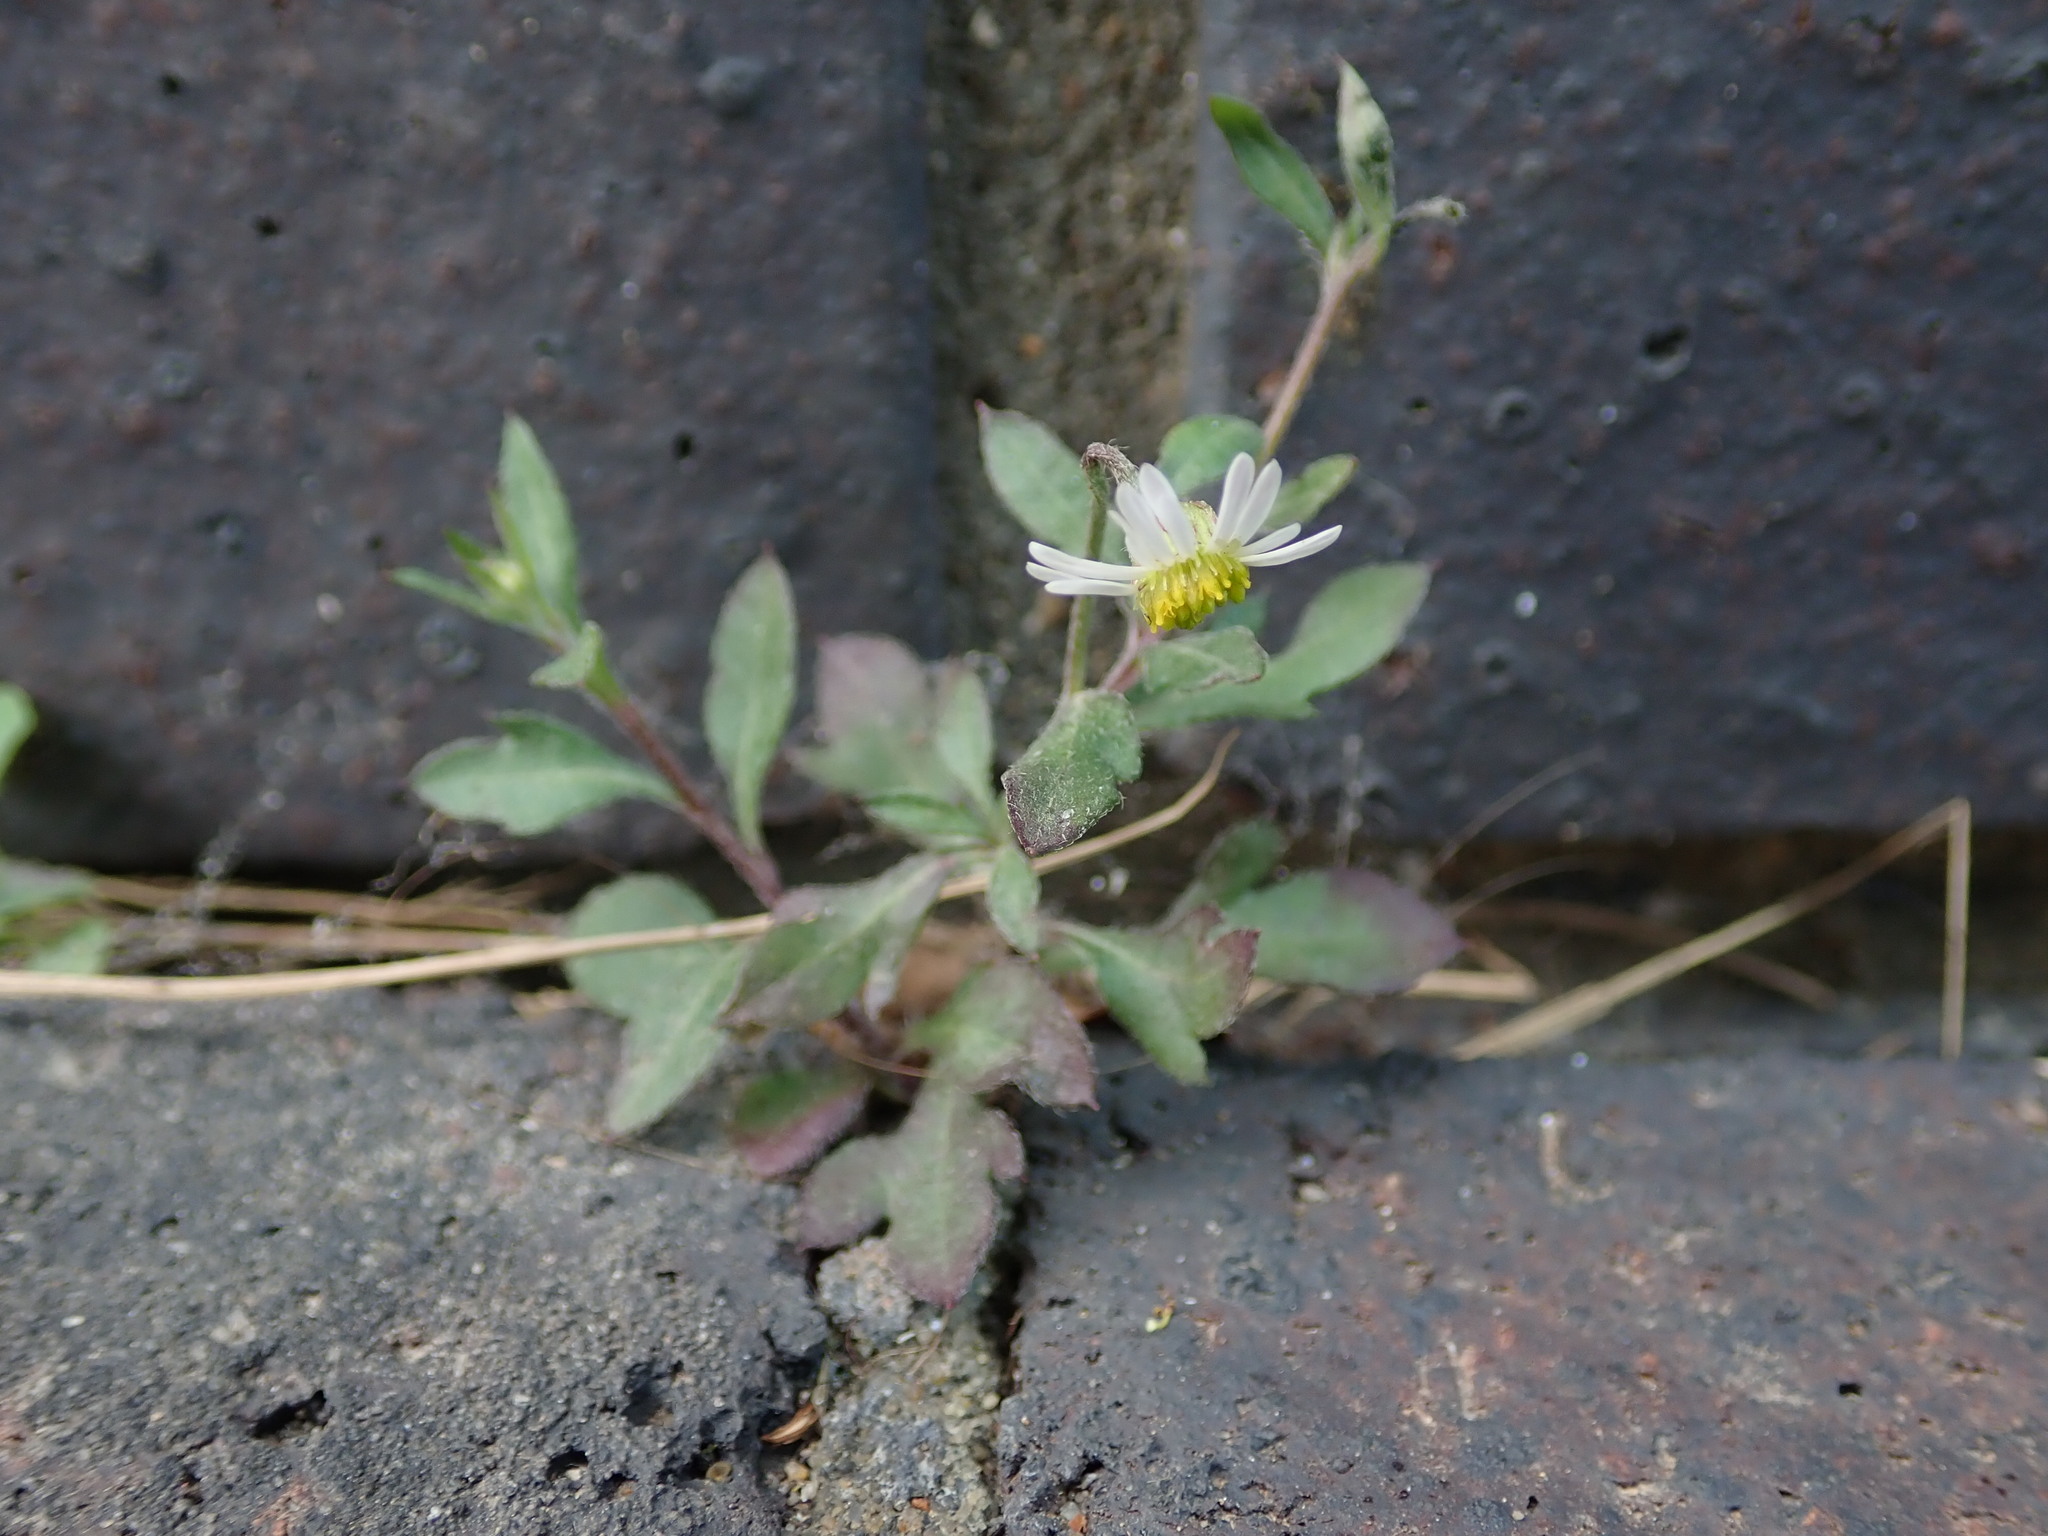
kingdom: Plantae
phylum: Tracheophyta
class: Magnoliopsida
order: Asterales
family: Asteraceae
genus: Erigeron
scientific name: Erigeron karvinskianus
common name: Mexican fleabane
